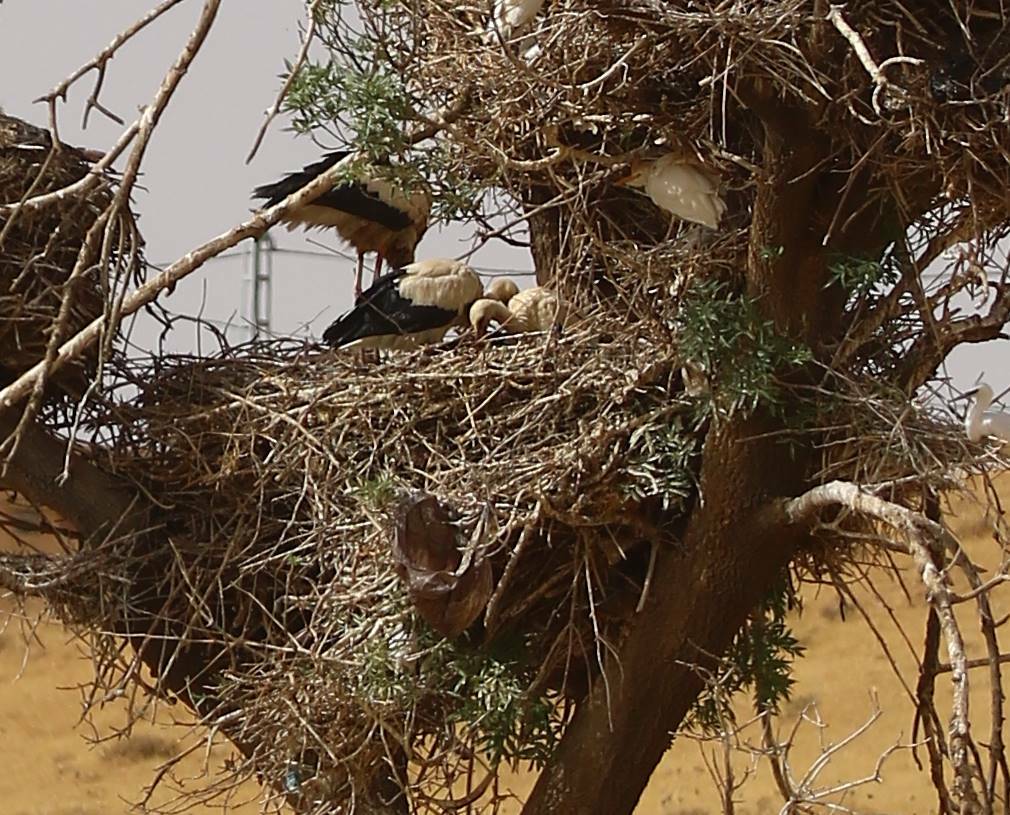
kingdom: Animalia
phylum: Chordata
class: Aves
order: Ciconiiformes
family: Ciconiidae
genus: Ciconia
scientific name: Ciconia ciconia
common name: White stork
